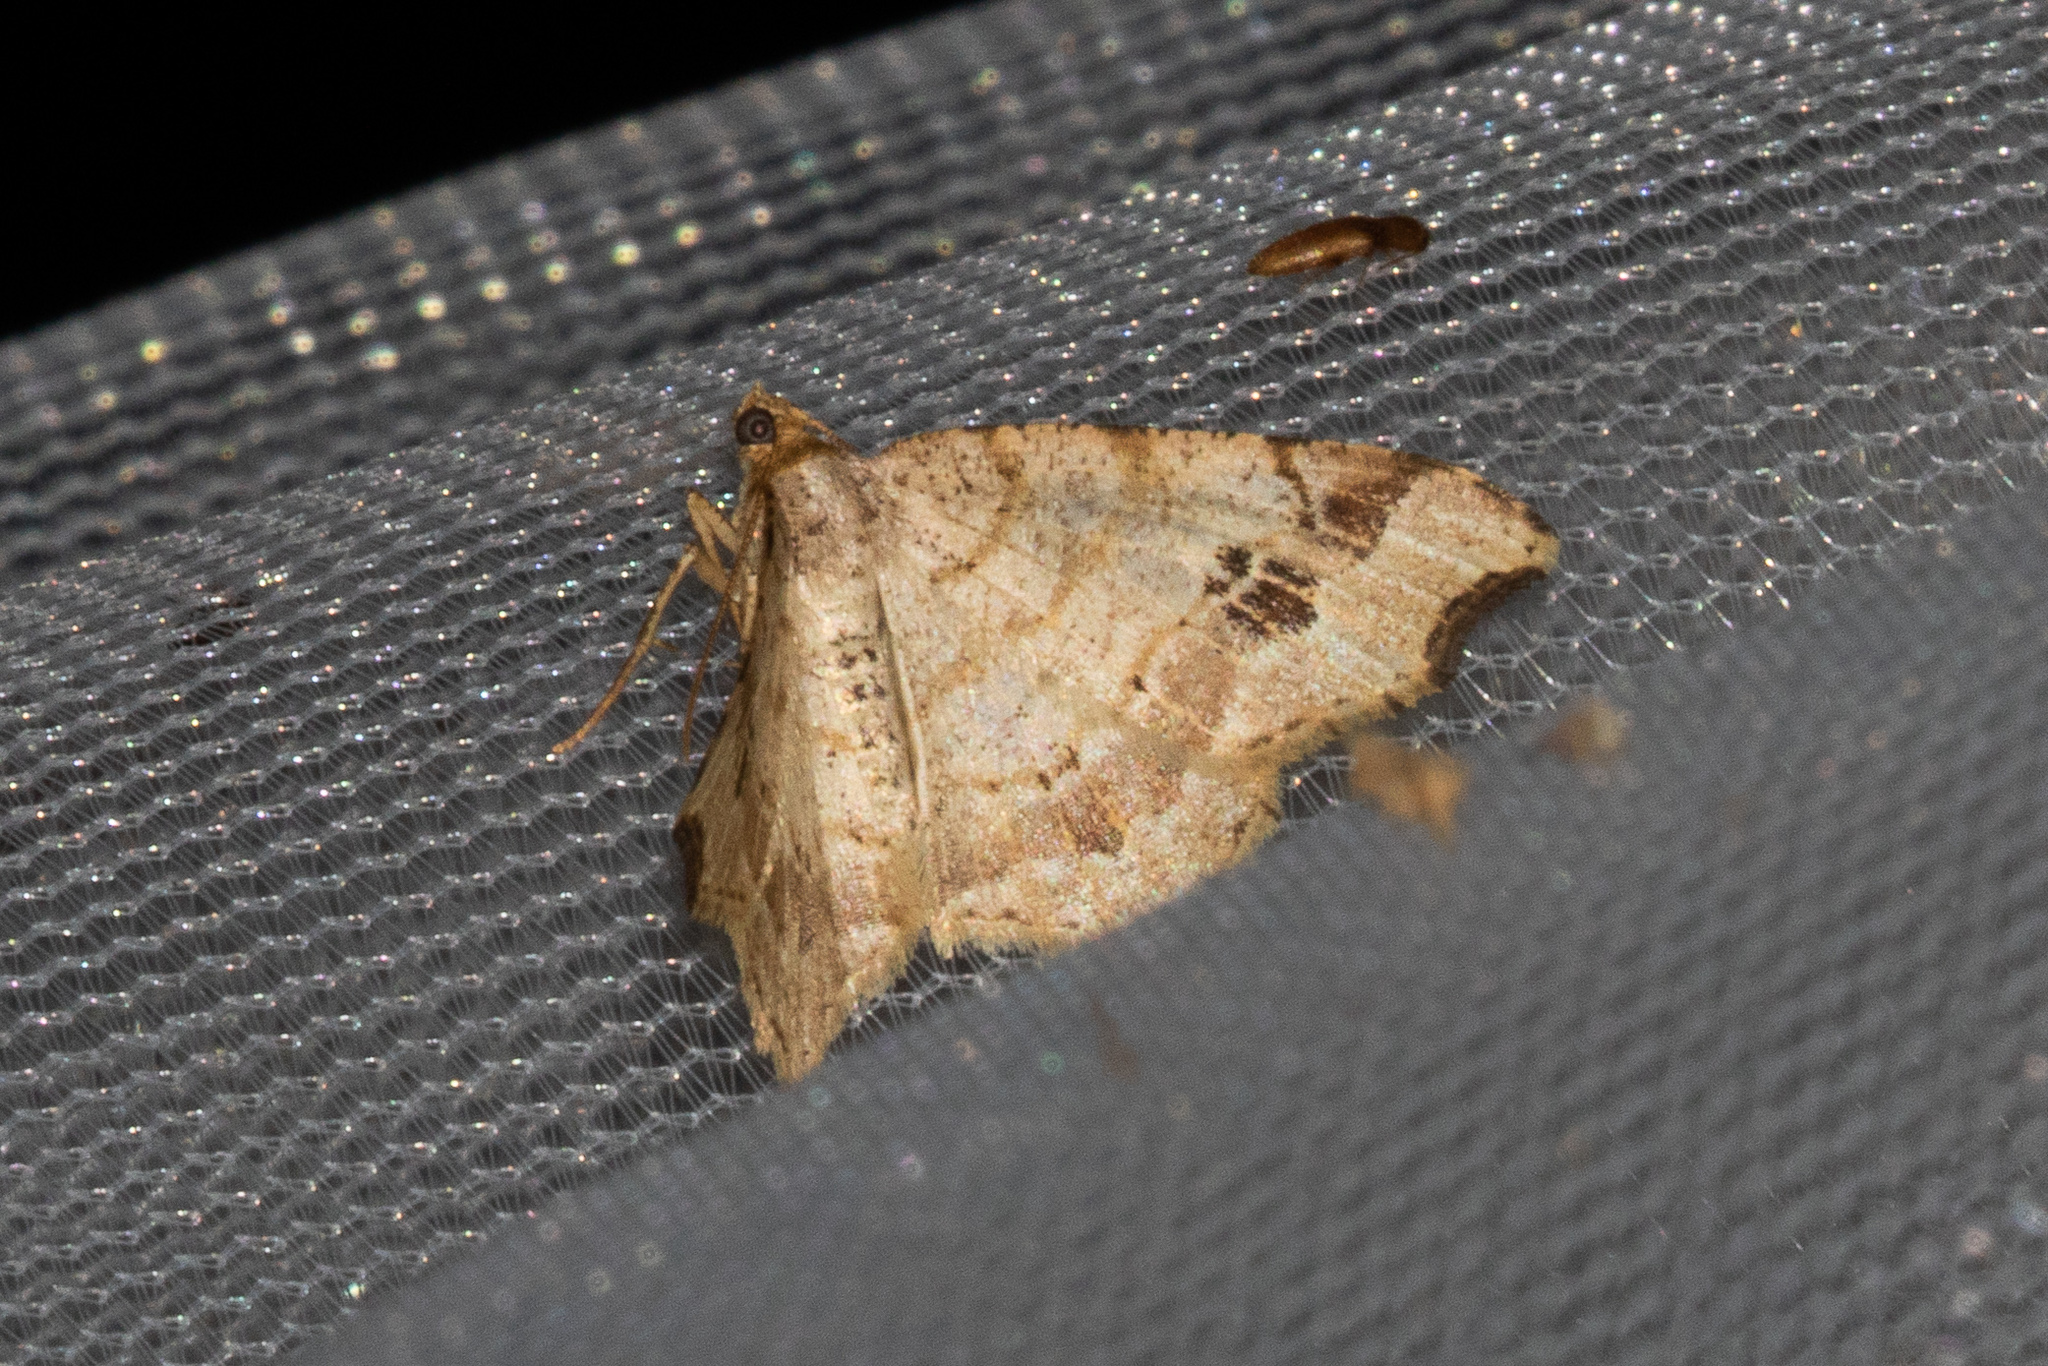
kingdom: Animalia
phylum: Arthropoda
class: Insecta
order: Lepidoptera
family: Geometridae
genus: Macaria
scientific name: Macaria aemulataria
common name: Common angle
